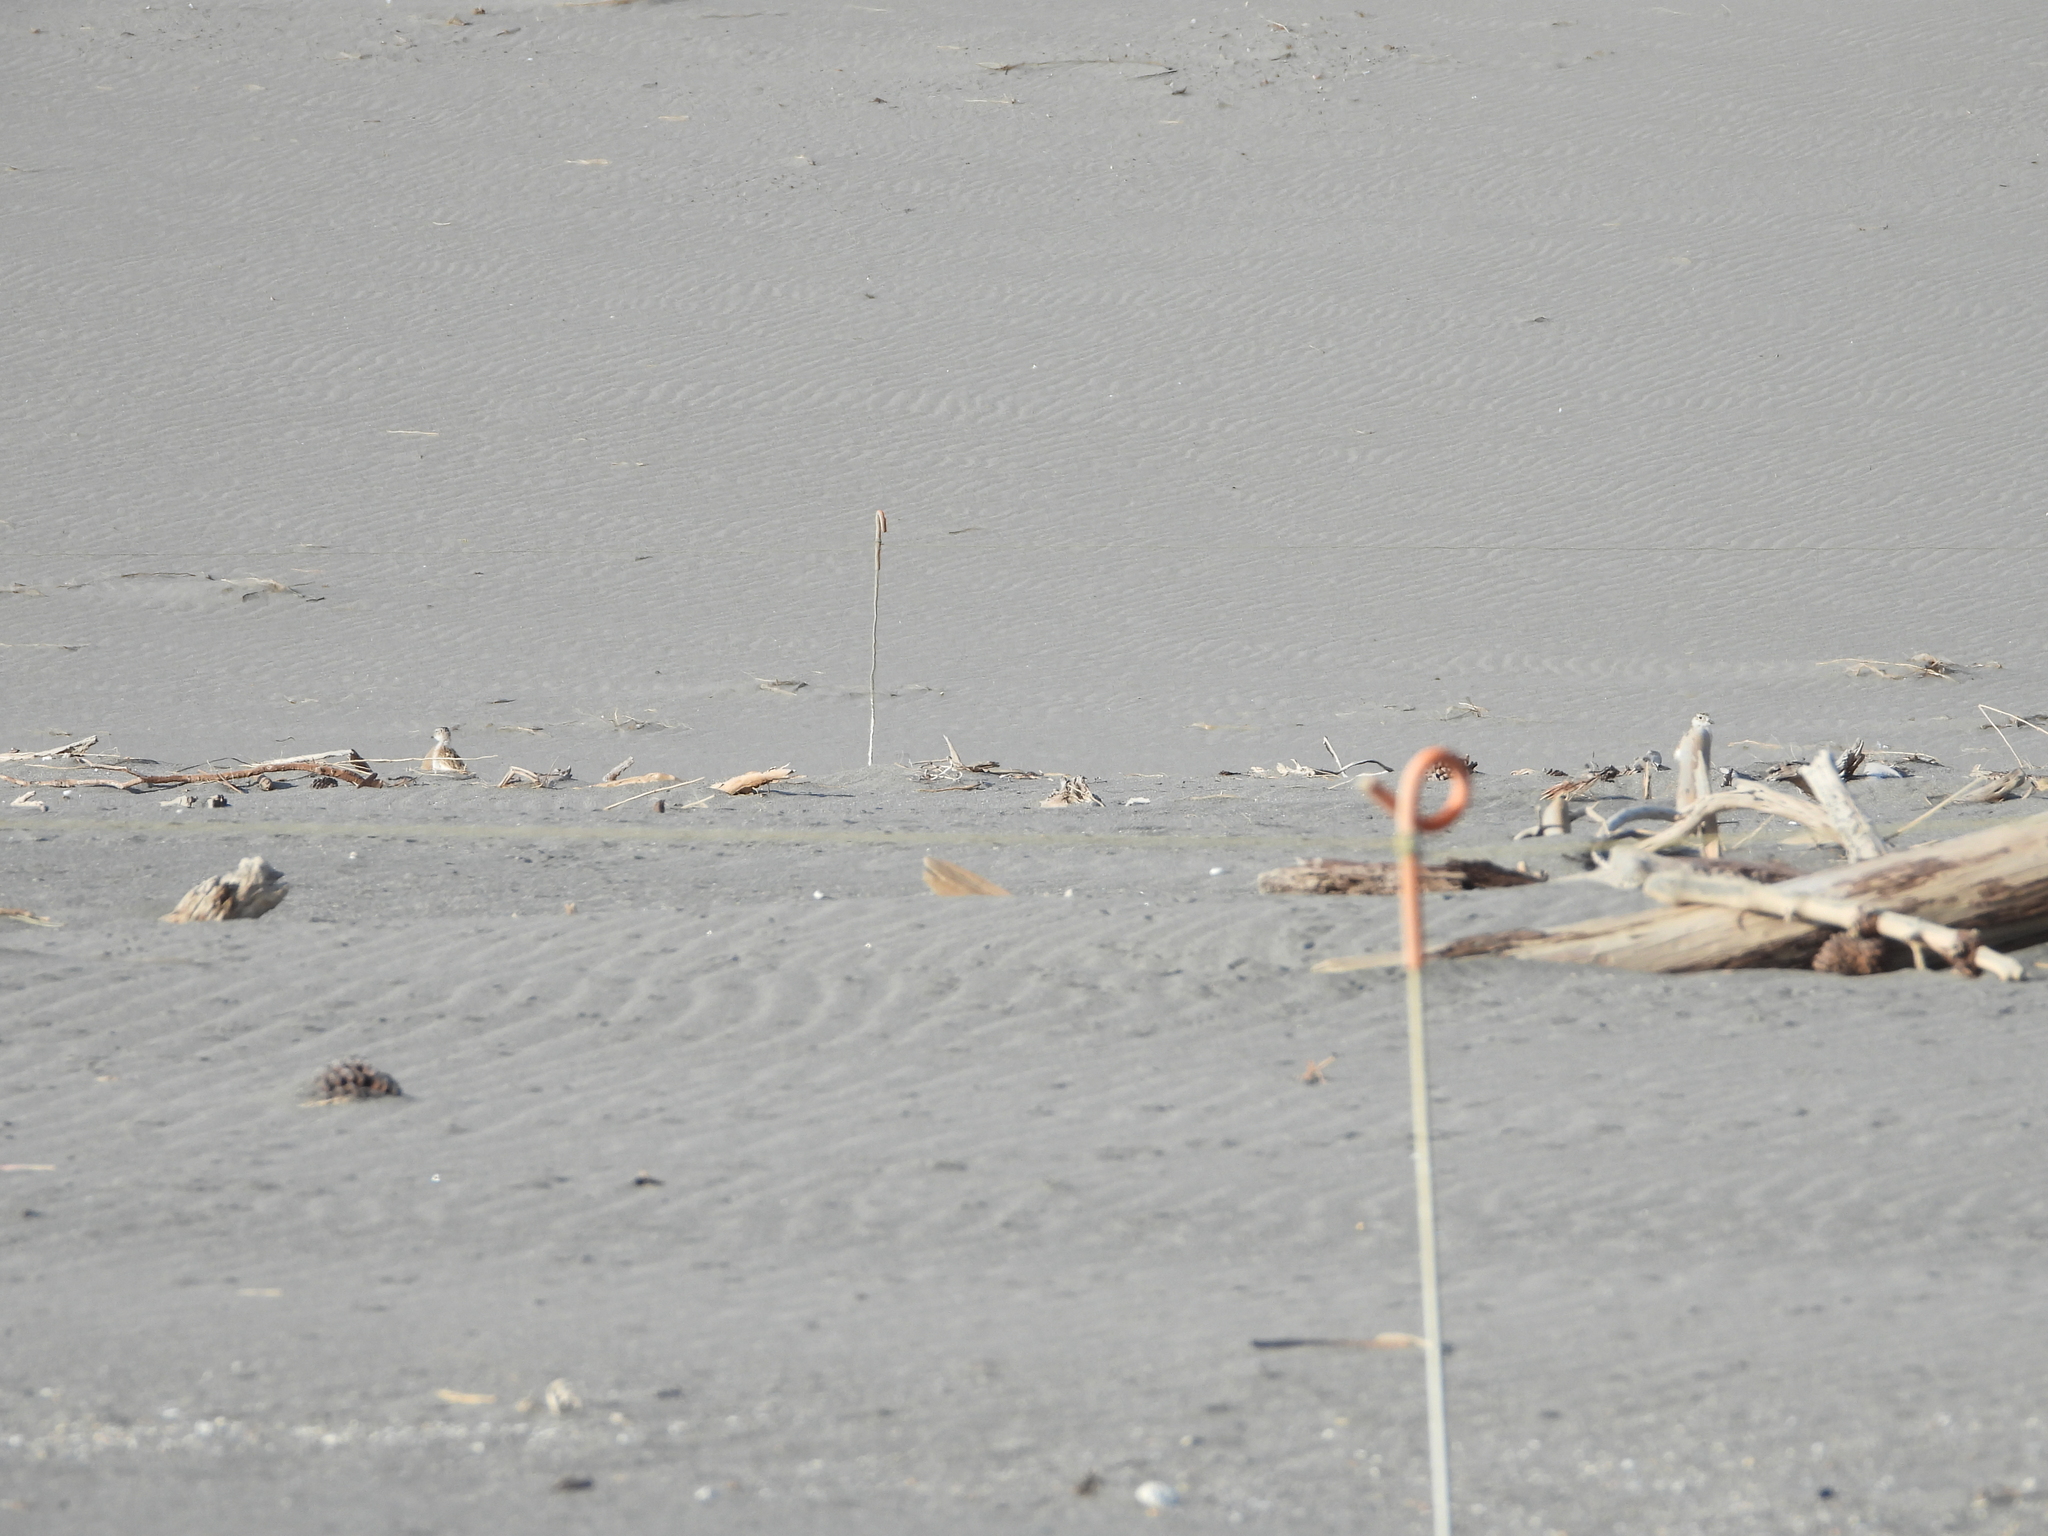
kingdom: Animalia
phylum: Chordata
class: Aves
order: Charadriiformes
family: Charadriidae
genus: Anarhynchus
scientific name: Anarhynchus
